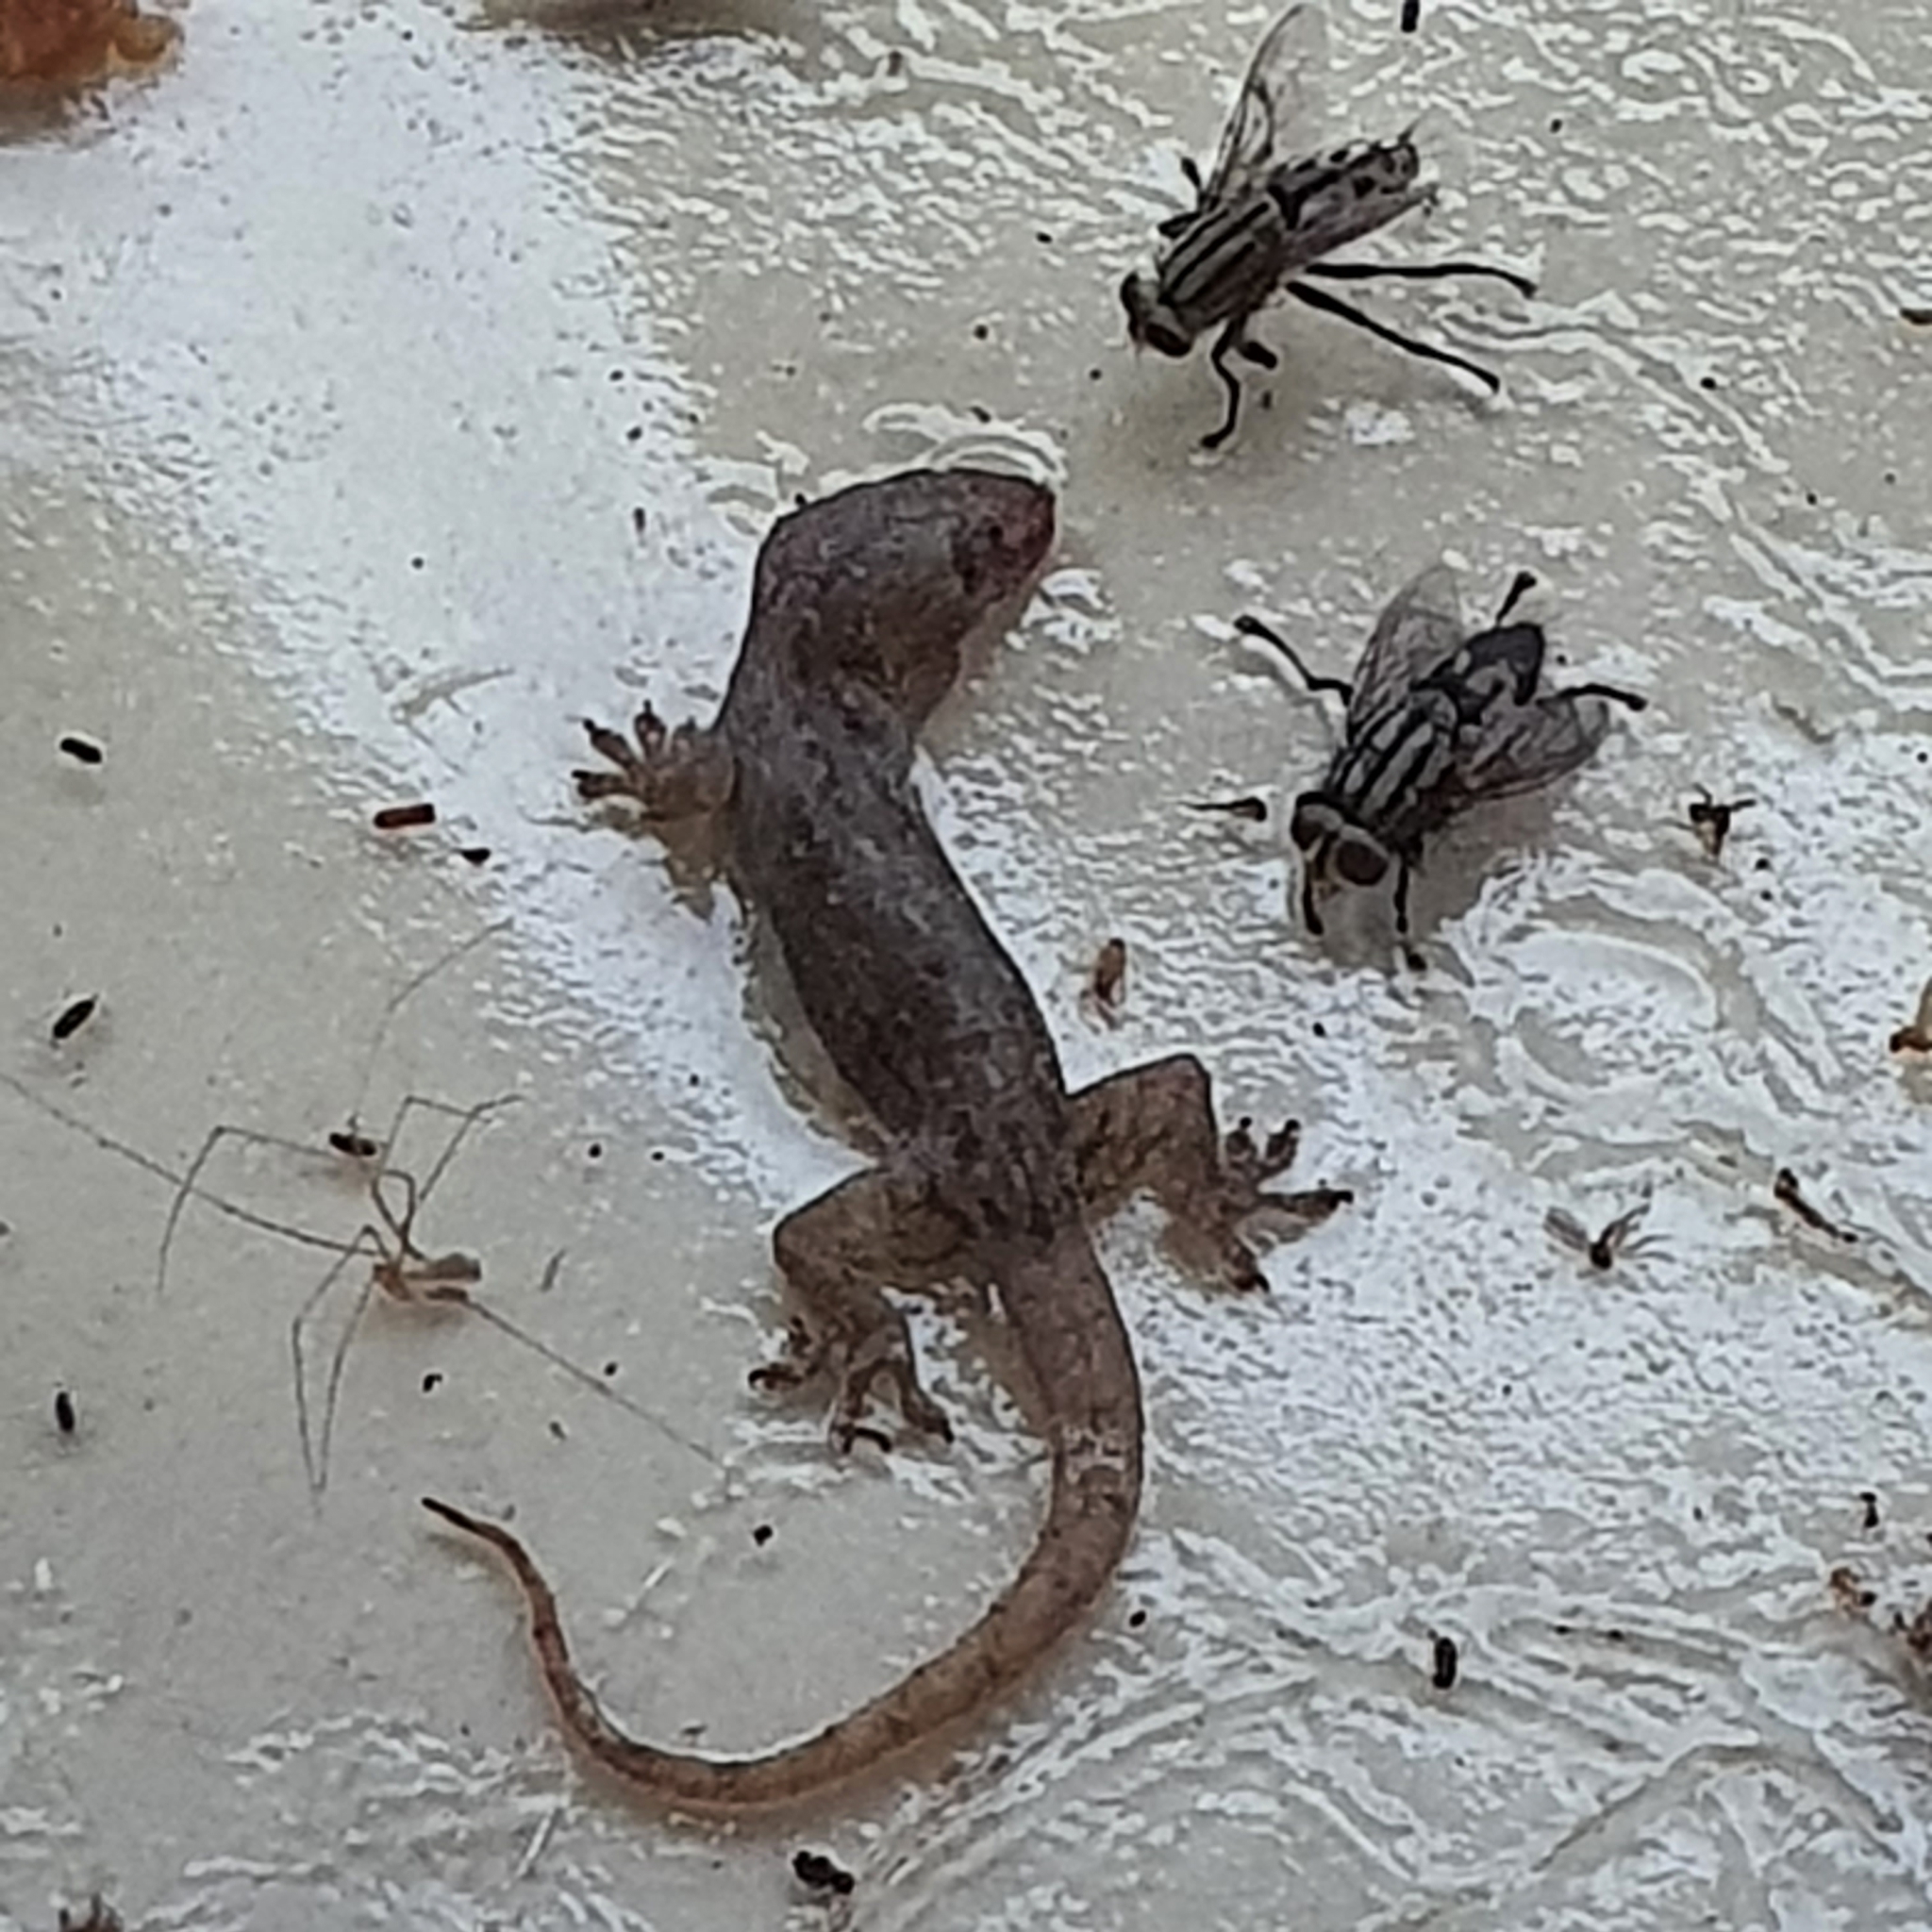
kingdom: Animalia
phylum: Chordata
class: Squamata
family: Gekkonidae
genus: Hemidactylus
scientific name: Hemidactylus frenatus
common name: Common house gecko
